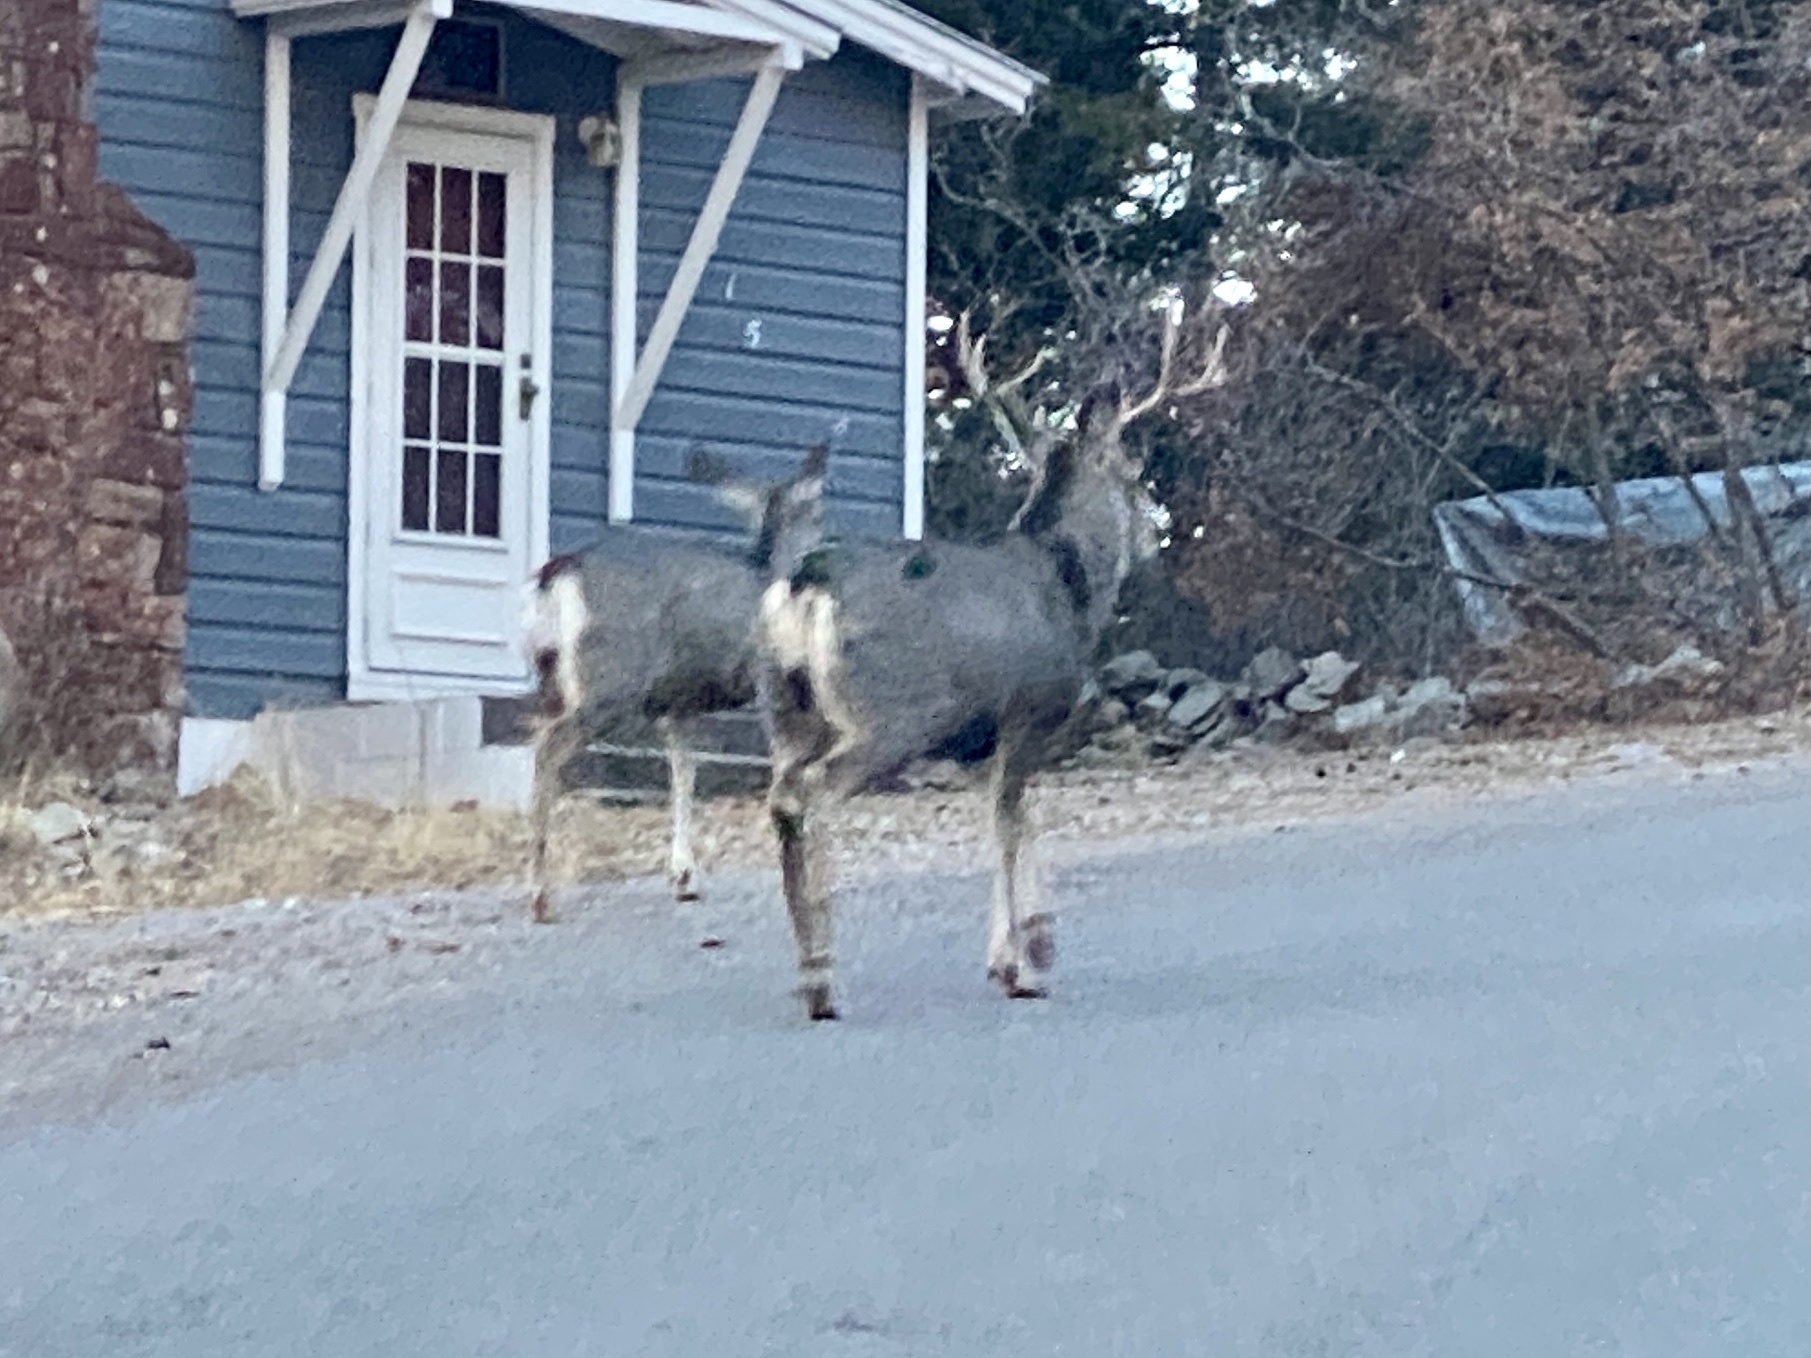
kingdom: Animalia
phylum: Chordata
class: Mammalia
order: Artiodactyla
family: Cervidae
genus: Odocoileus
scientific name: Odocoileus hemionus
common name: Mule deer
